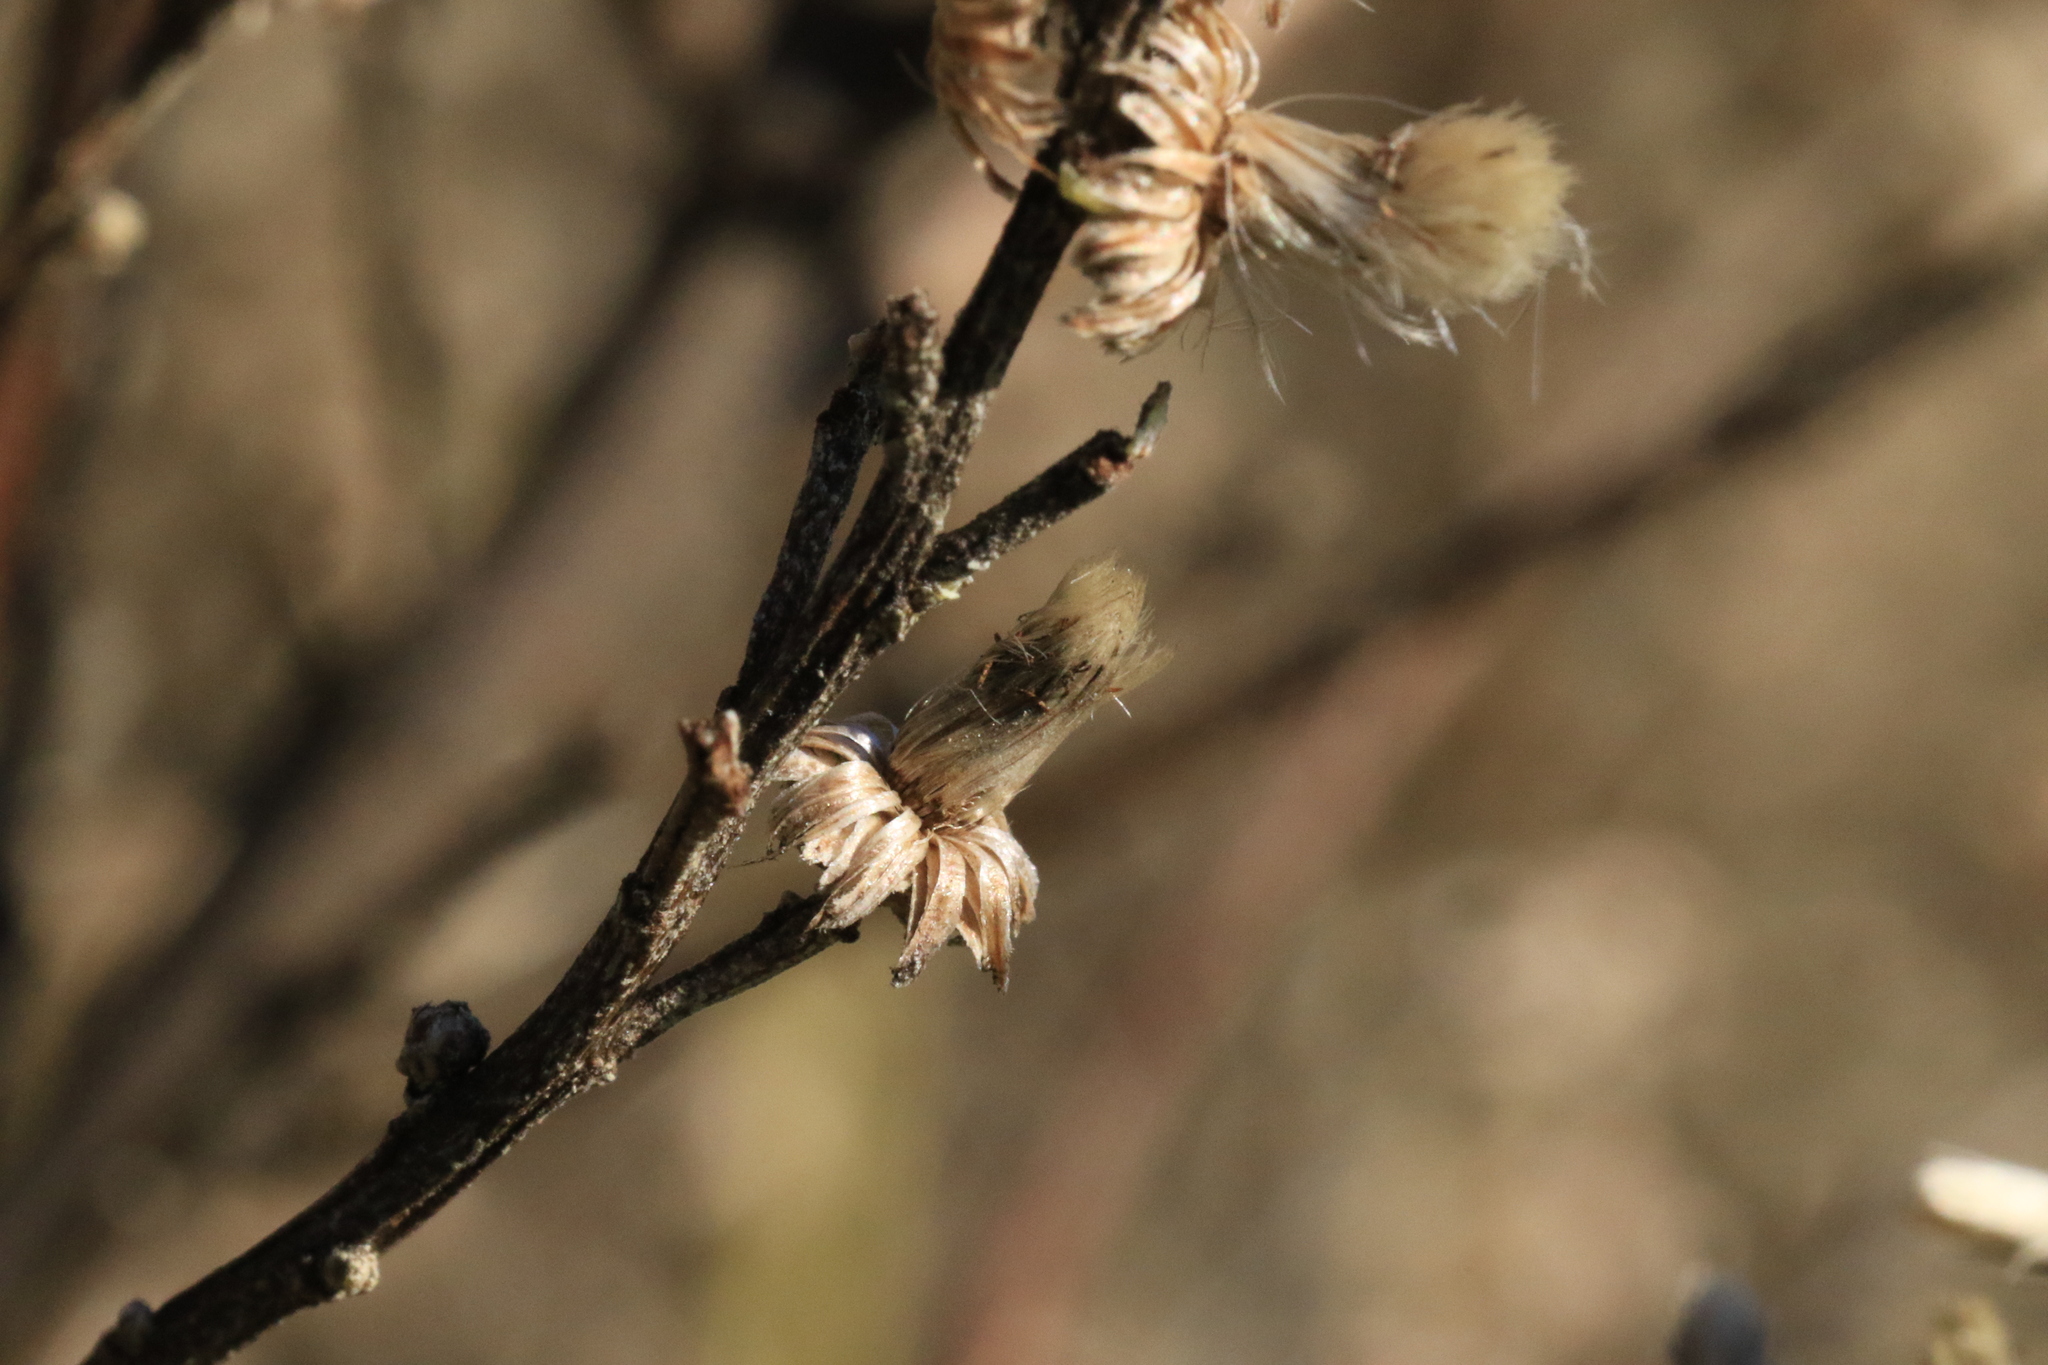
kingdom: Plantae
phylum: Tracheophyta
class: Magnoliopsida
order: Asterales
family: Asteraceae
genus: Baccharis
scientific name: Baccharis pilularis
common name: Coyotebrush
